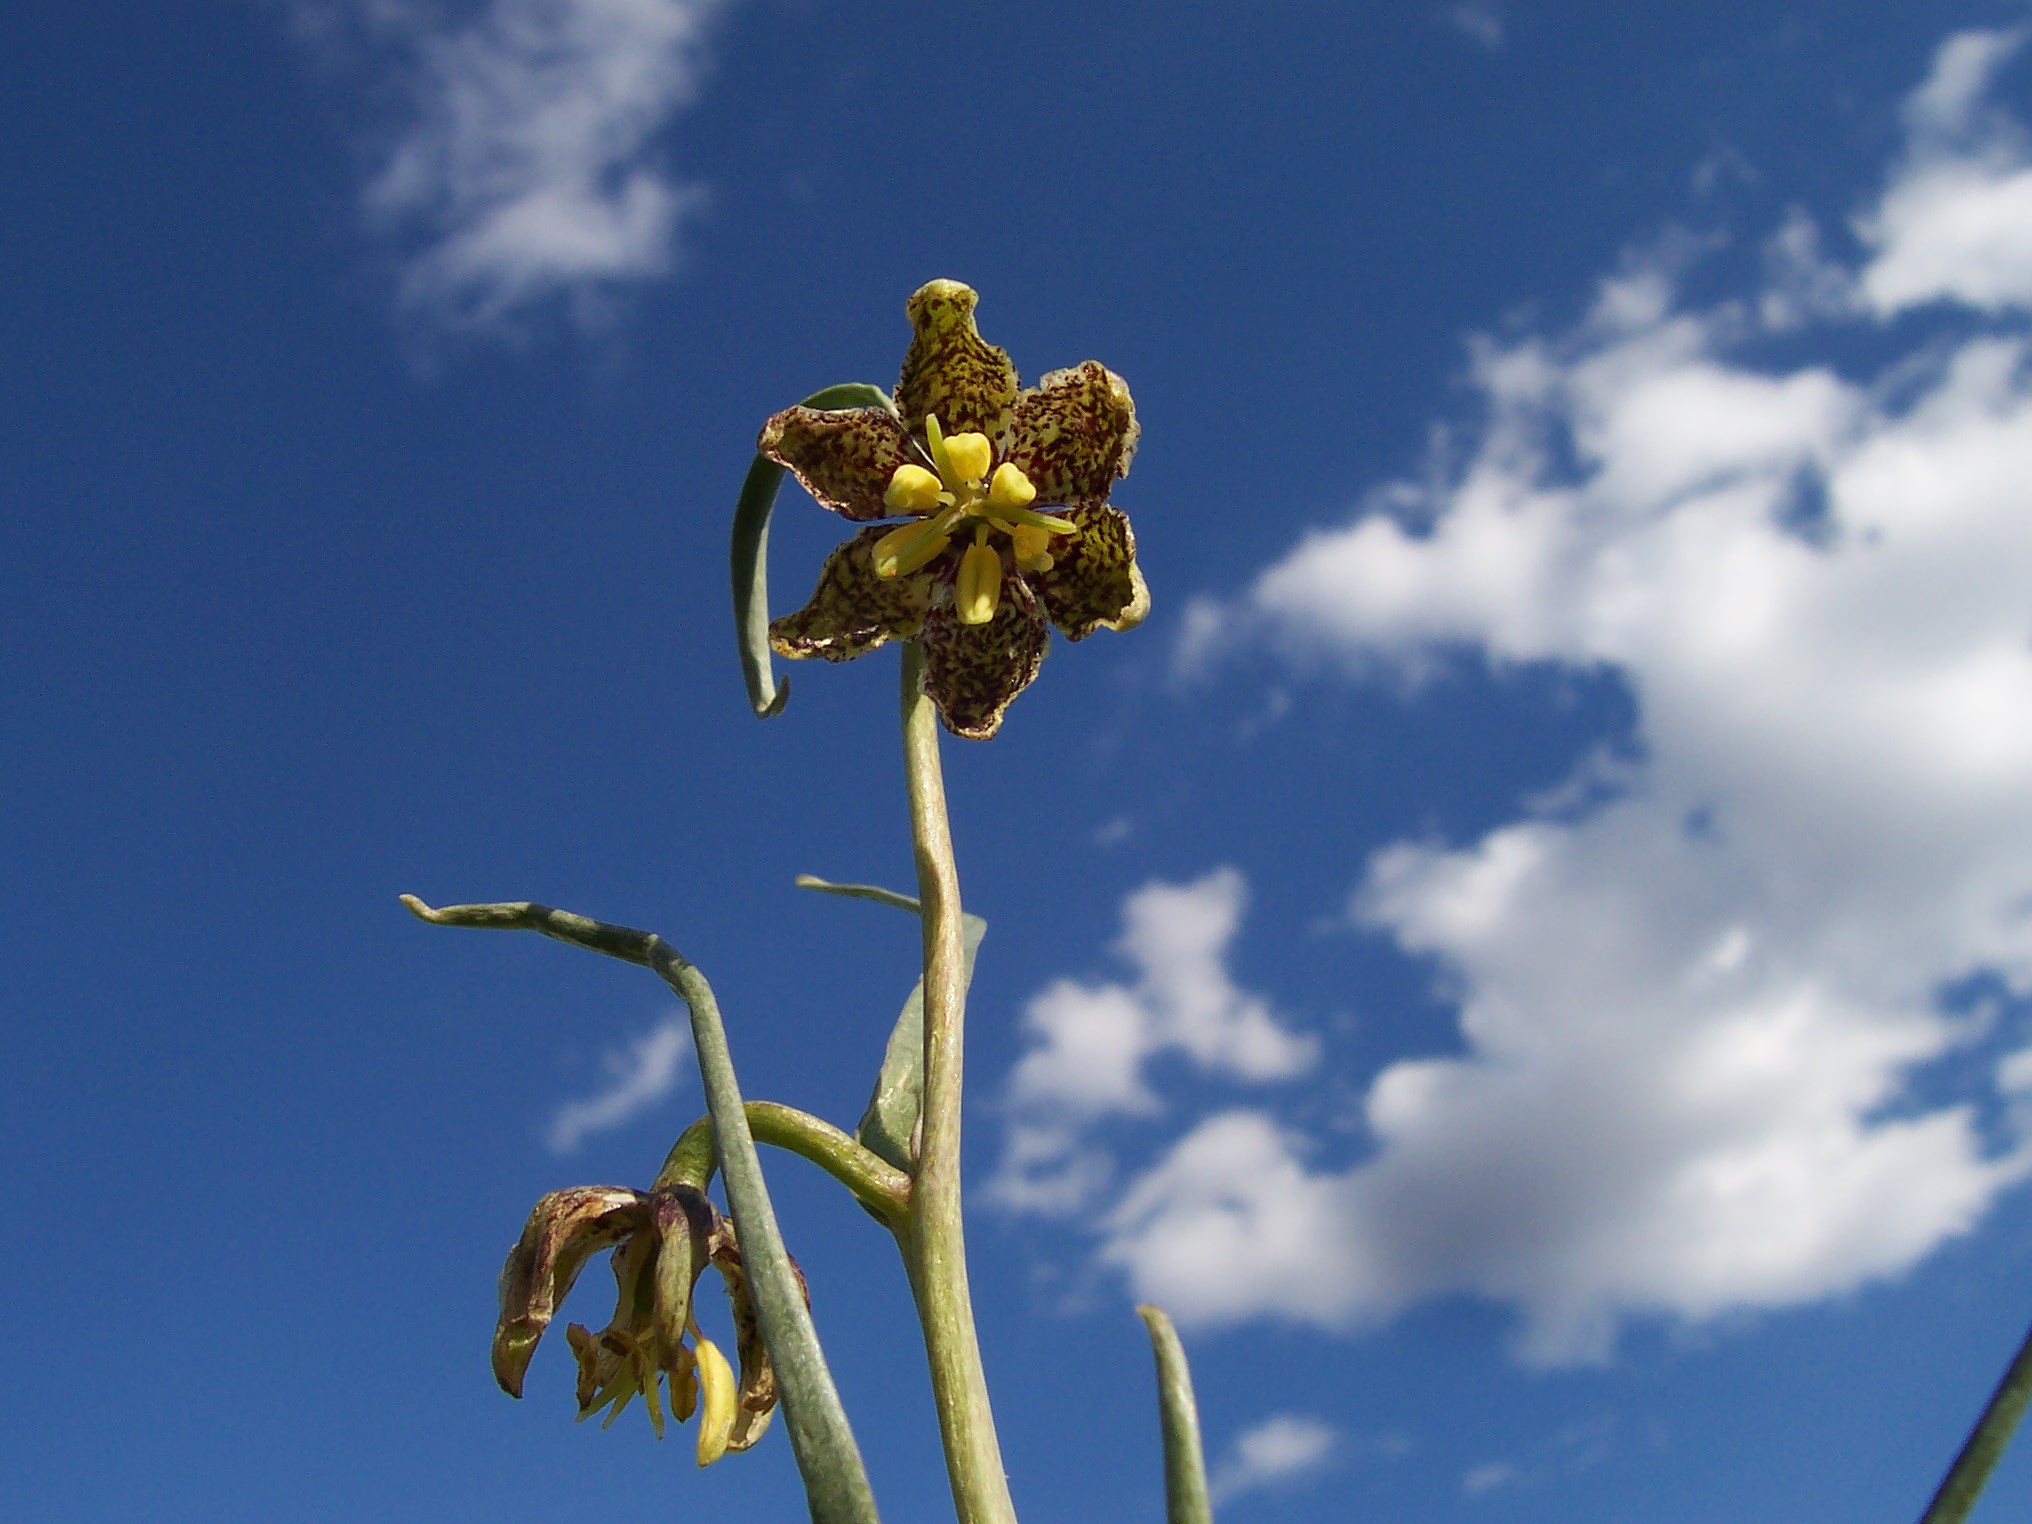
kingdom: Plantae
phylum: Tracheophyta
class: Liliopsida
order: Liliales
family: Liliaceae
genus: Fritillaria
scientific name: Fritillaria atropurpurea
